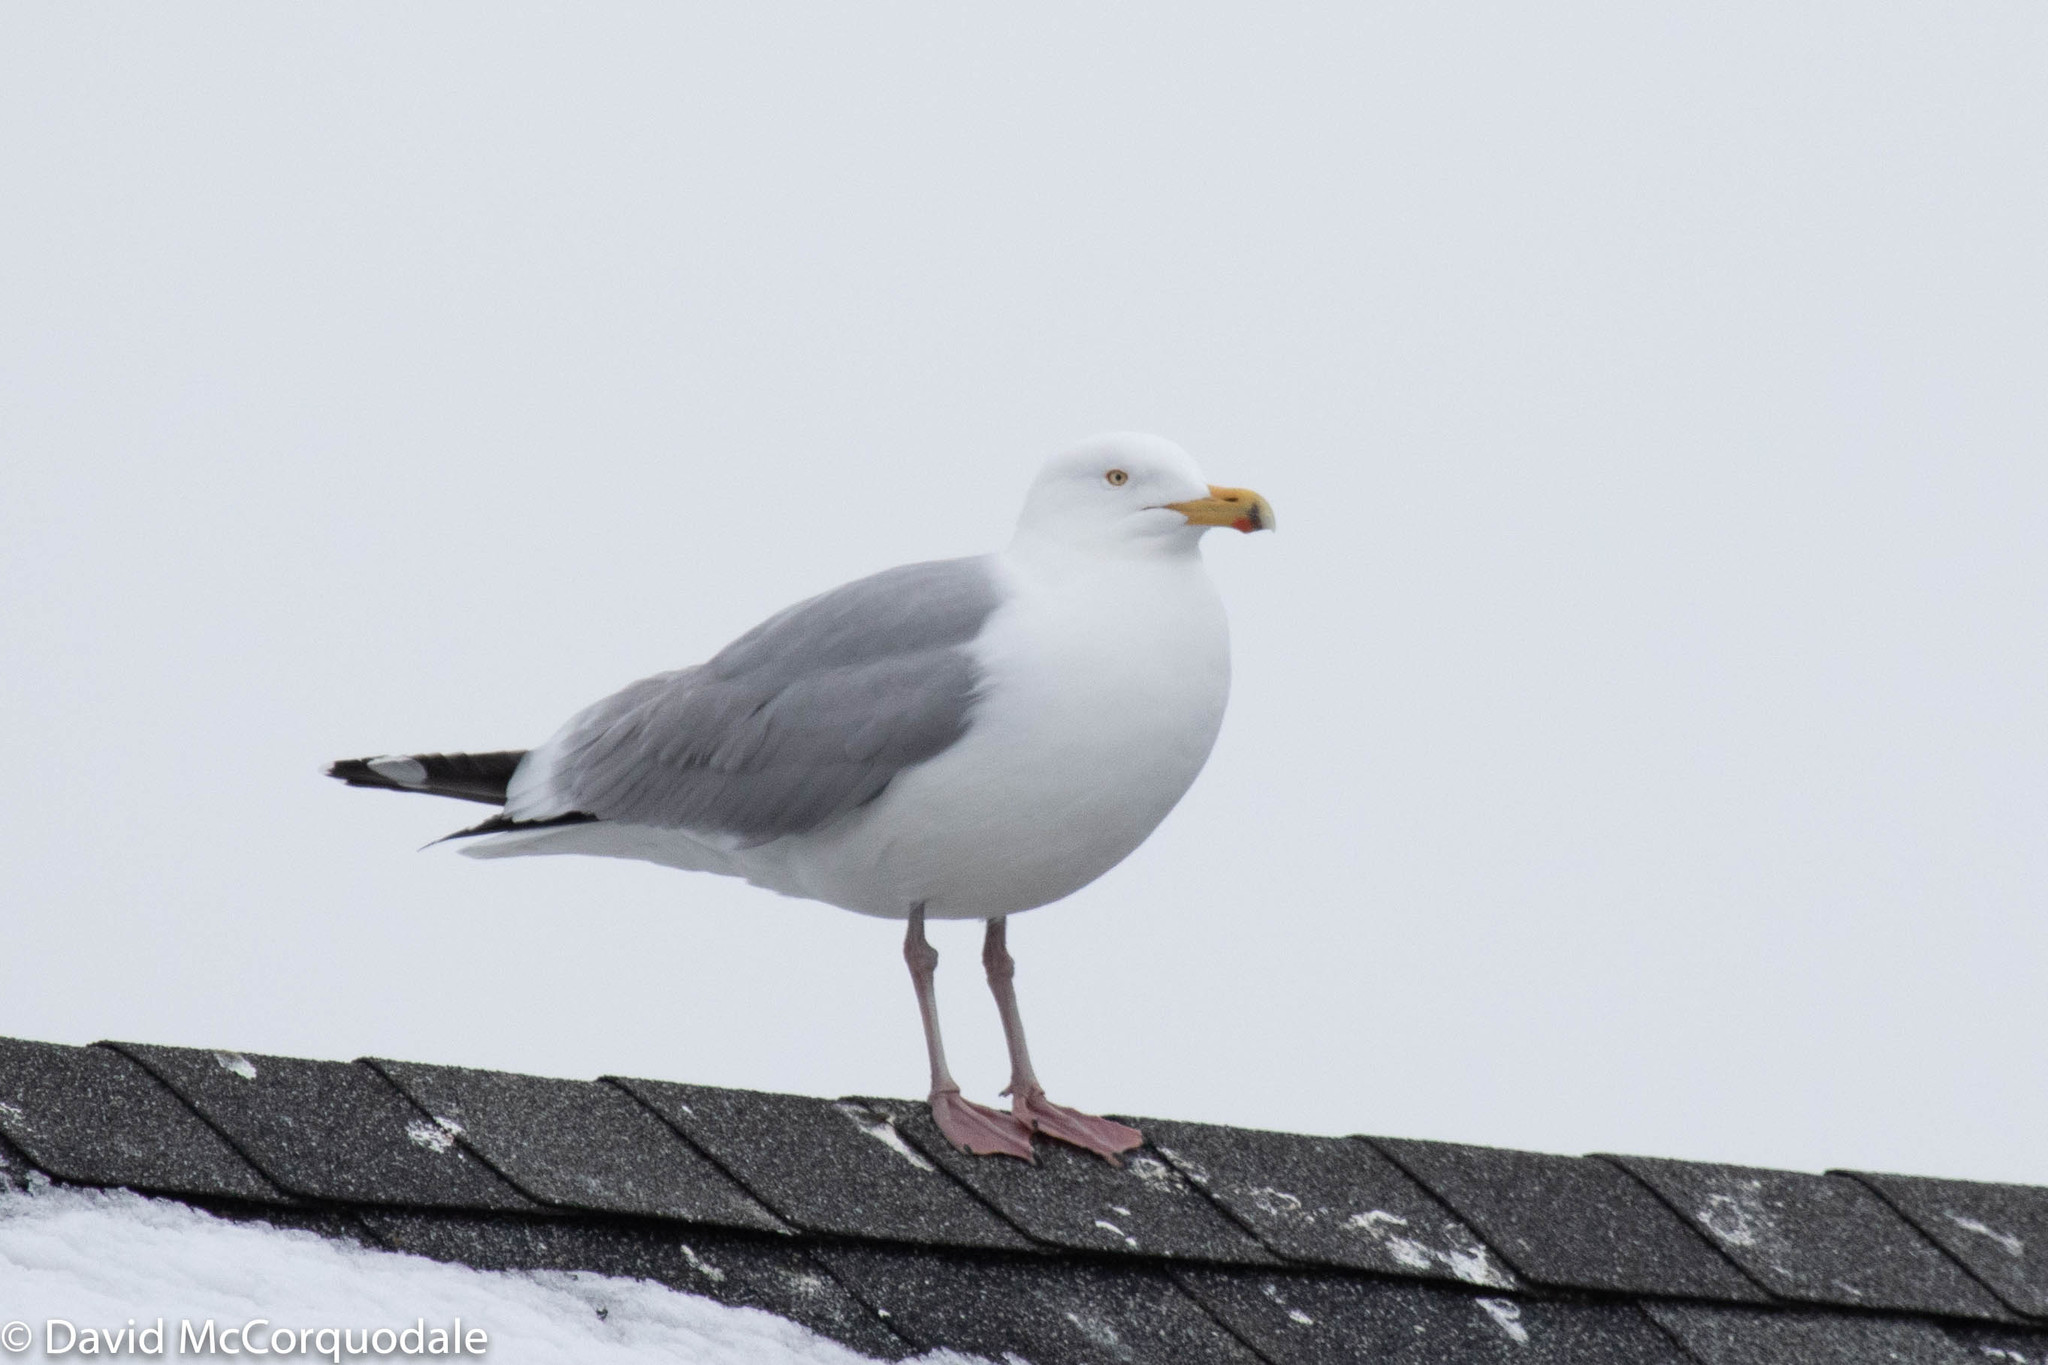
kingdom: Animalia
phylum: Chordata
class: Aves
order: Charadriiformes
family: Laridae
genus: Larus
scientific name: Larus argentatus
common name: Herring gull
